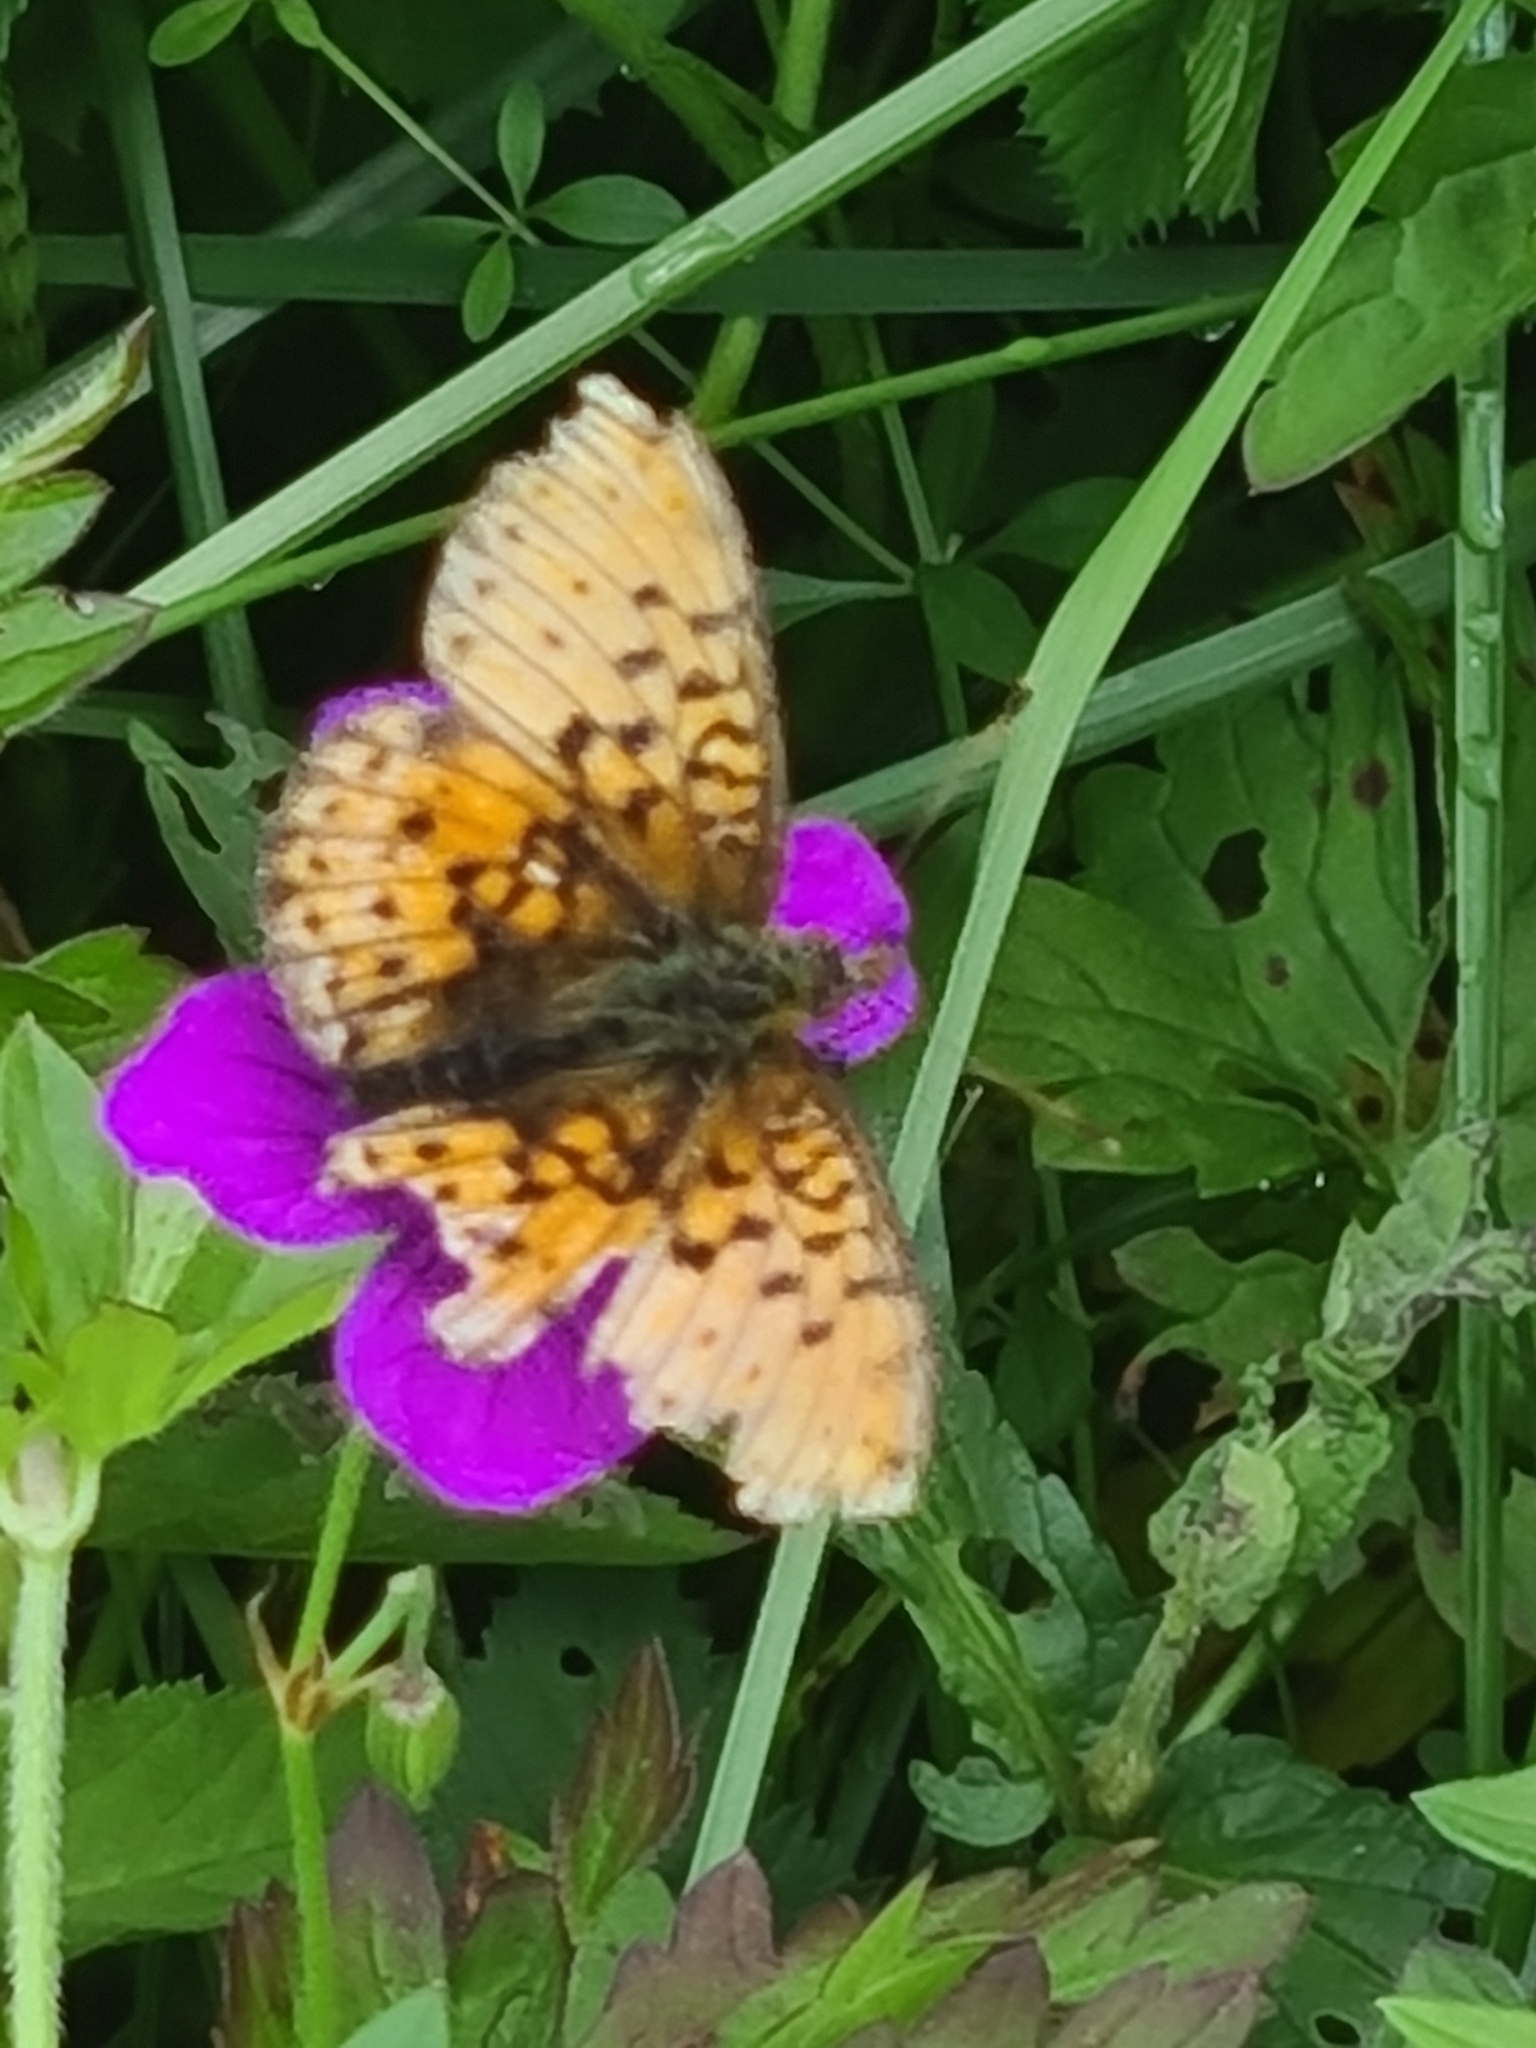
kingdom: Animalia
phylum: Arthropoda
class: Insecta
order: Lepidoptera
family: Nymphalidae
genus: Brenthis
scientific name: Brenthis ino
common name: Lesser marbled fritillary
